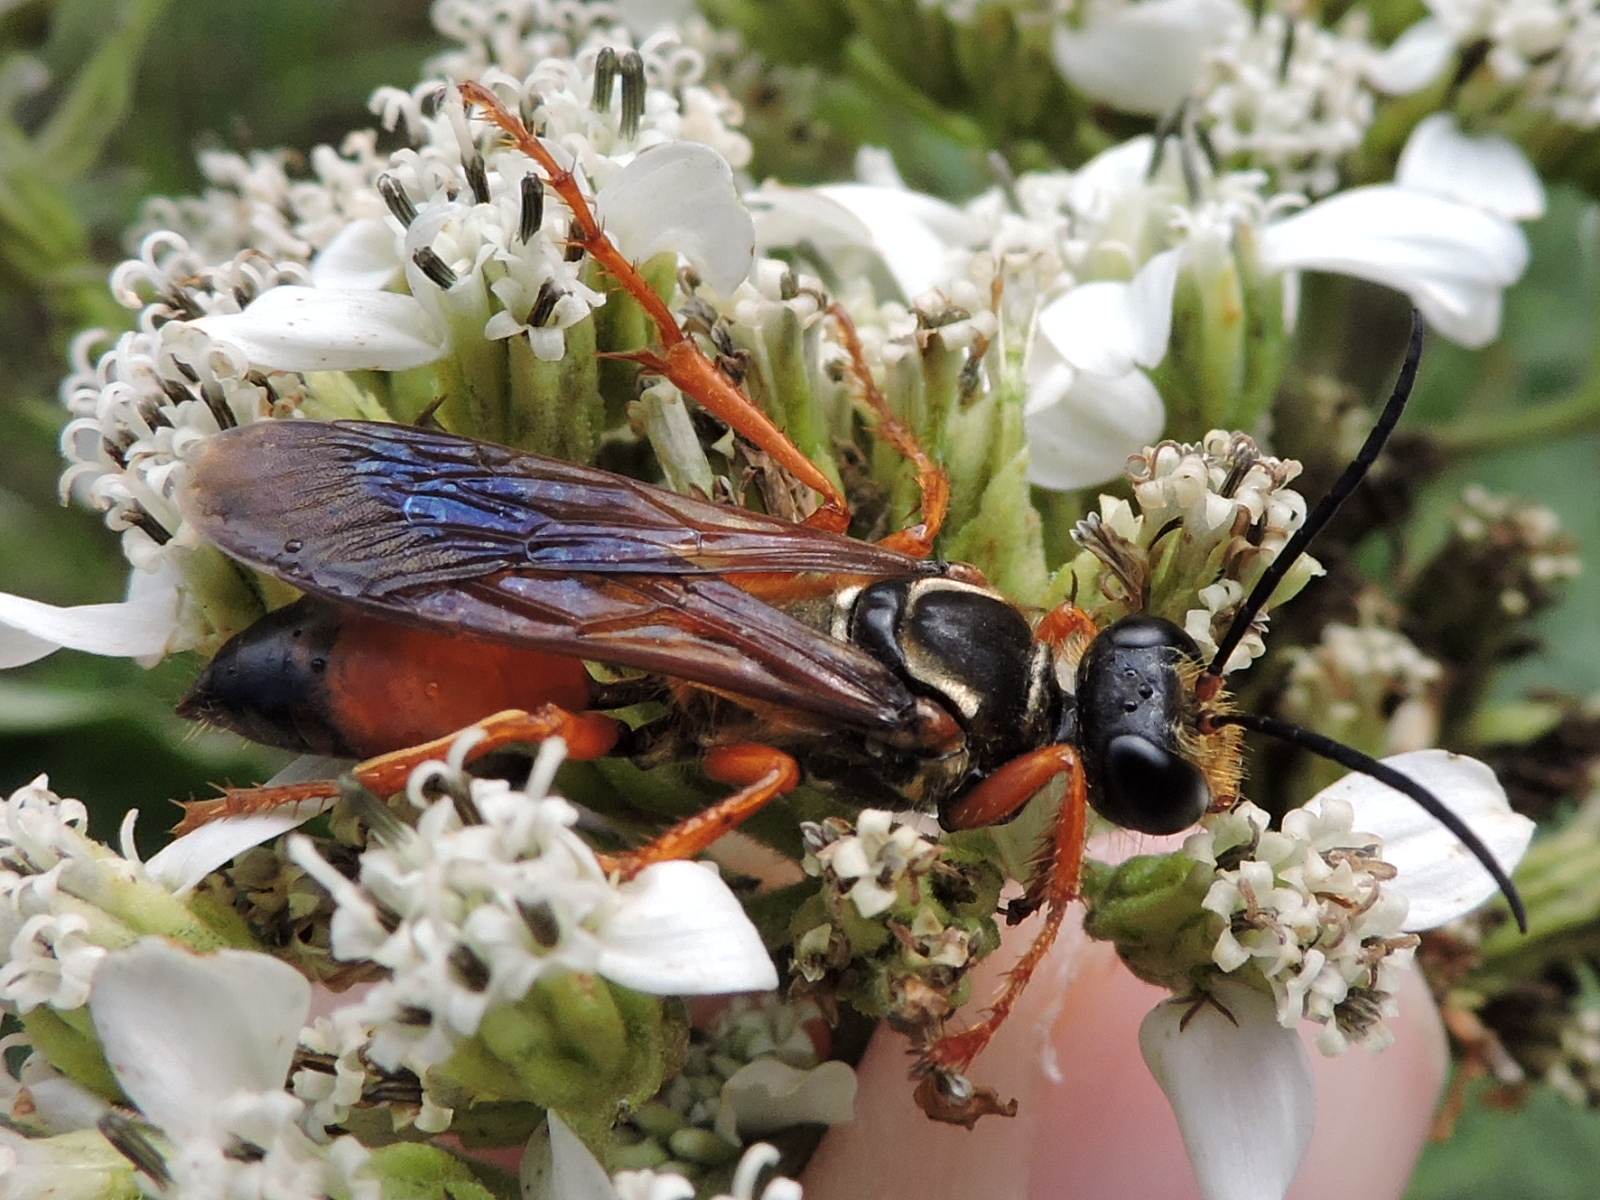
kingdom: Animalia
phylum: Arthropoda
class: Insecta
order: Hymenoptera
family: Sphecidae
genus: Sphex
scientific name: Sphex ichneumoneus
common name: Great golden digger wasp
